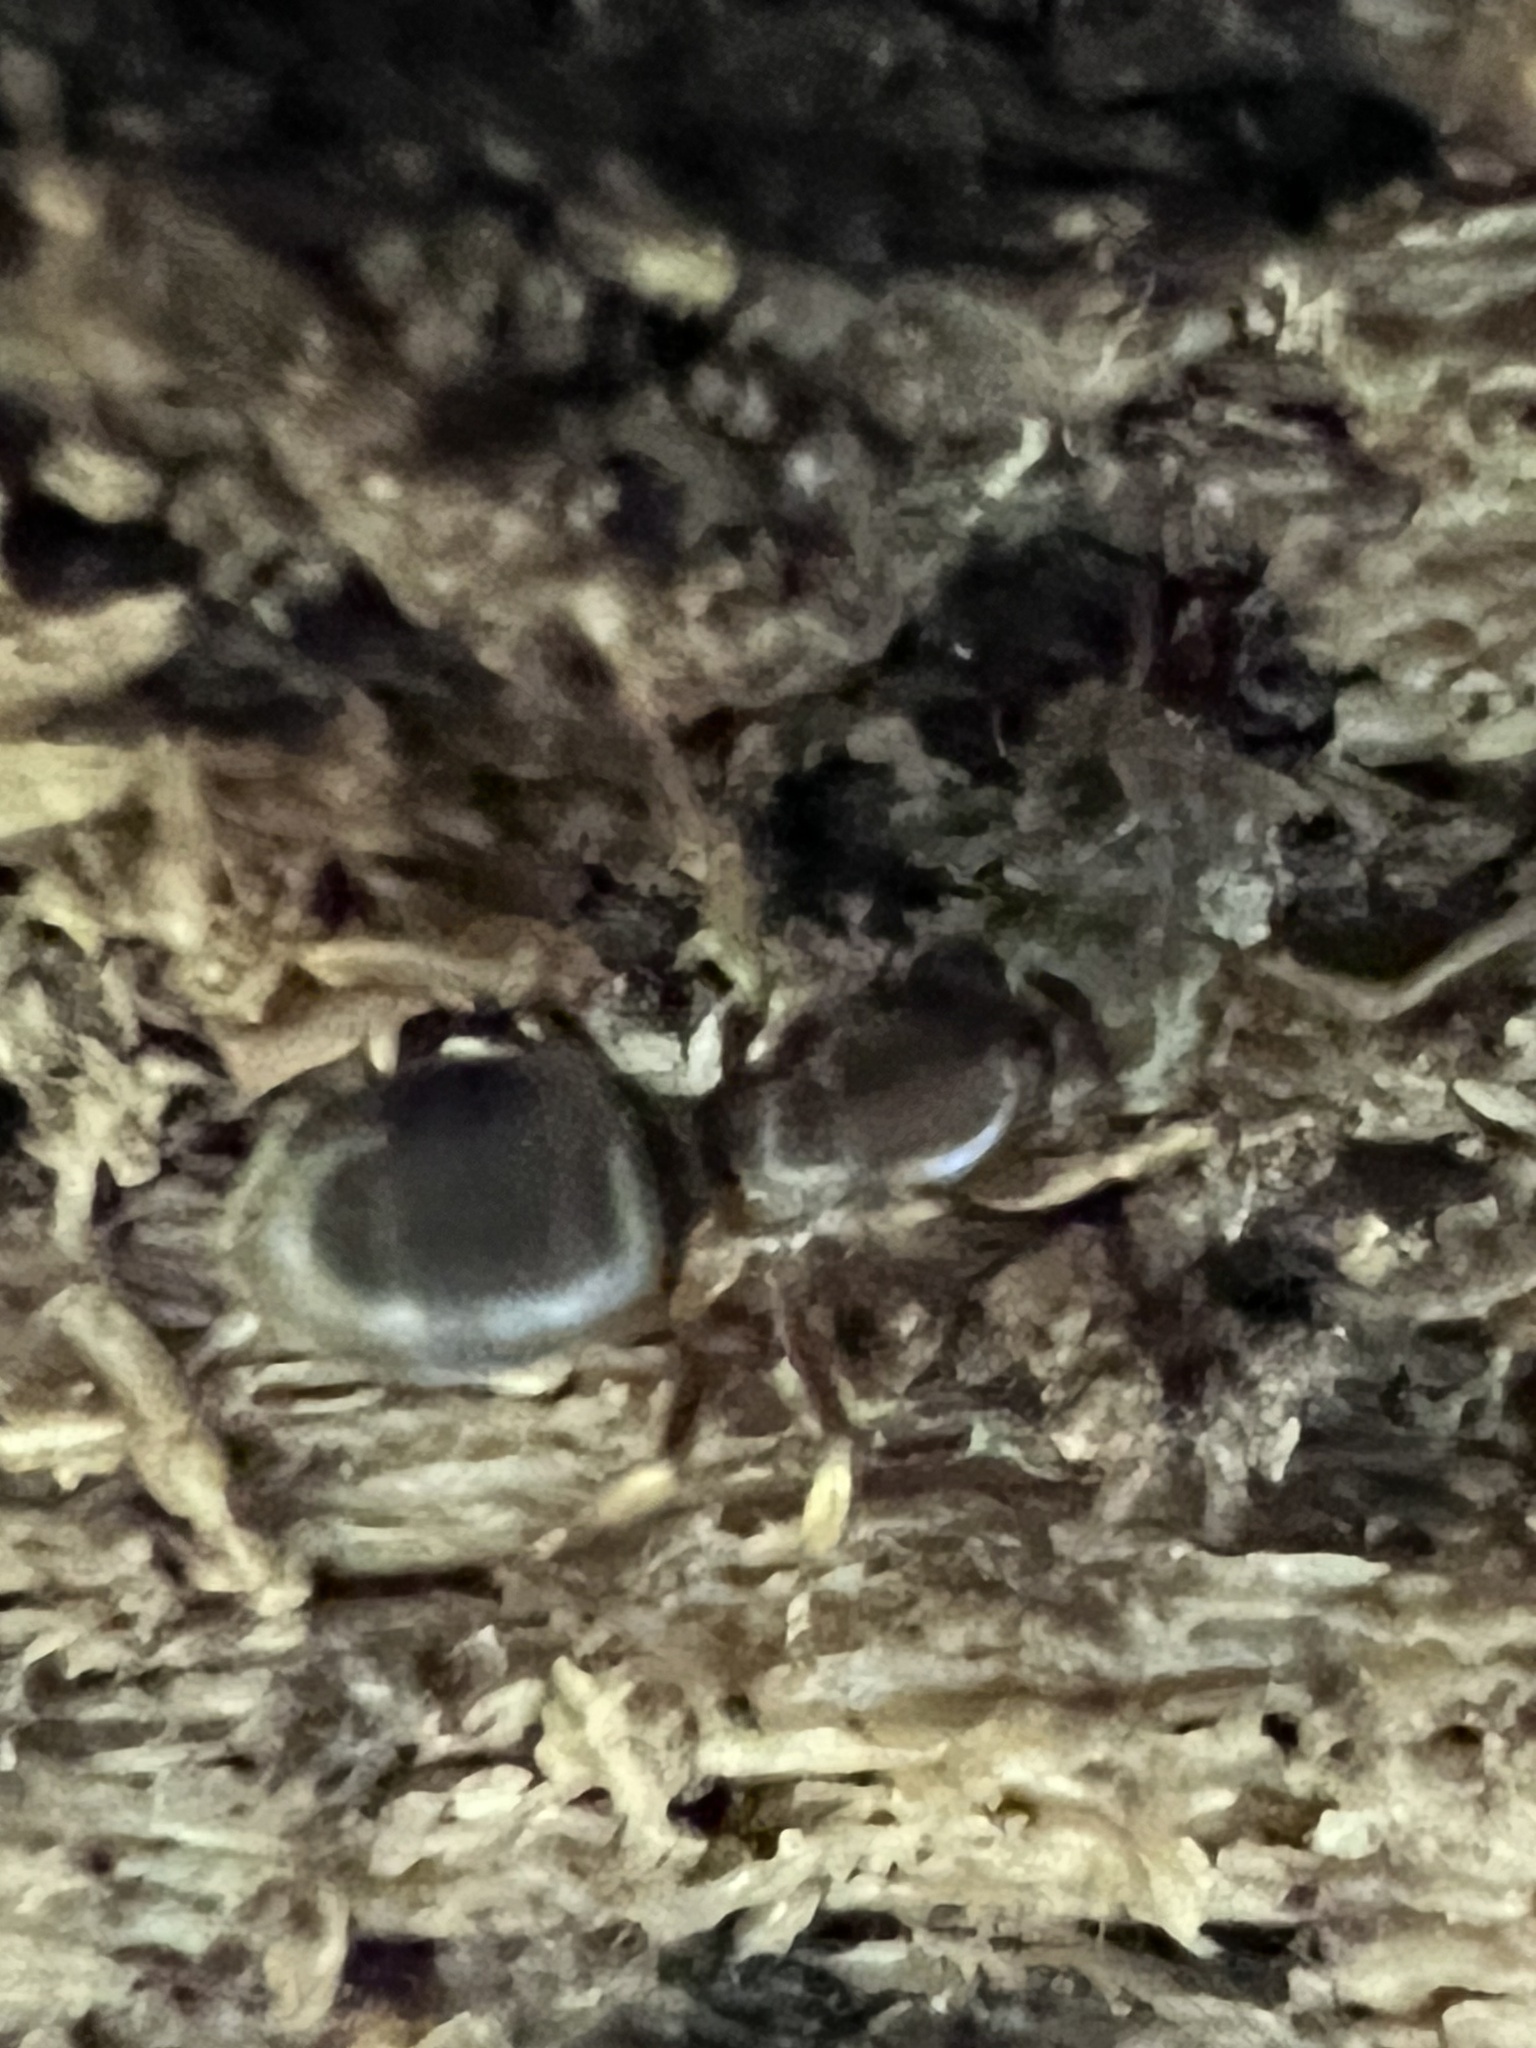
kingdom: Animalia
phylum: Arthropoda
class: Insecta
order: Hymenoptera
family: Formicidae
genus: Lasius
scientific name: Lasius aphidicola
